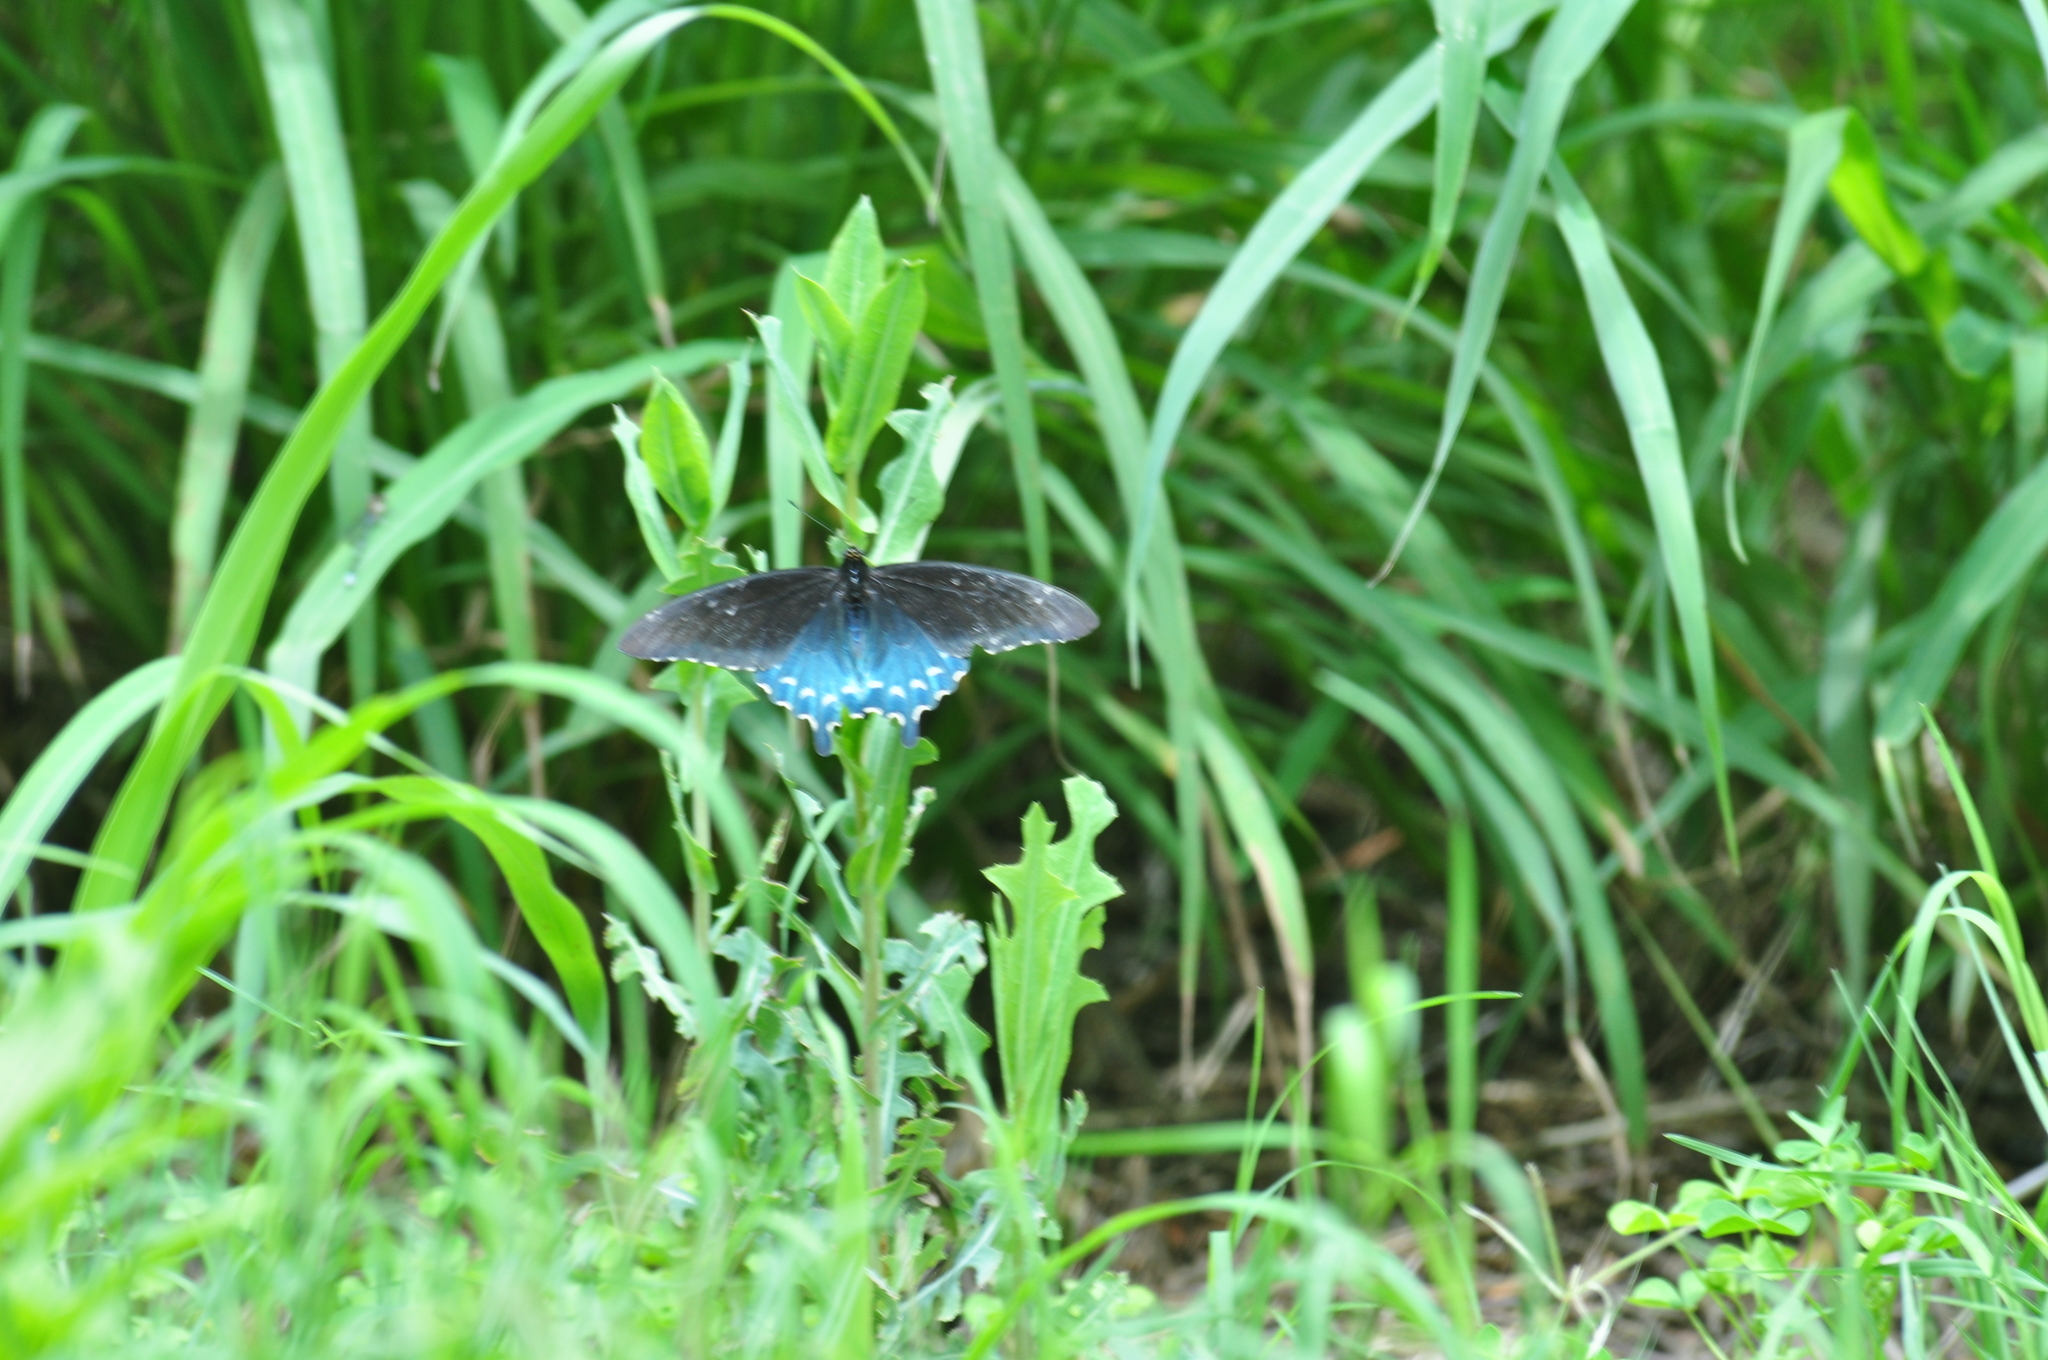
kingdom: Animalia
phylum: Arthropoda
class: Insecta
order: Lepidoptera
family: Papilionidae
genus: Battus
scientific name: Battus philenor
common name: Pipevine swallowtail
